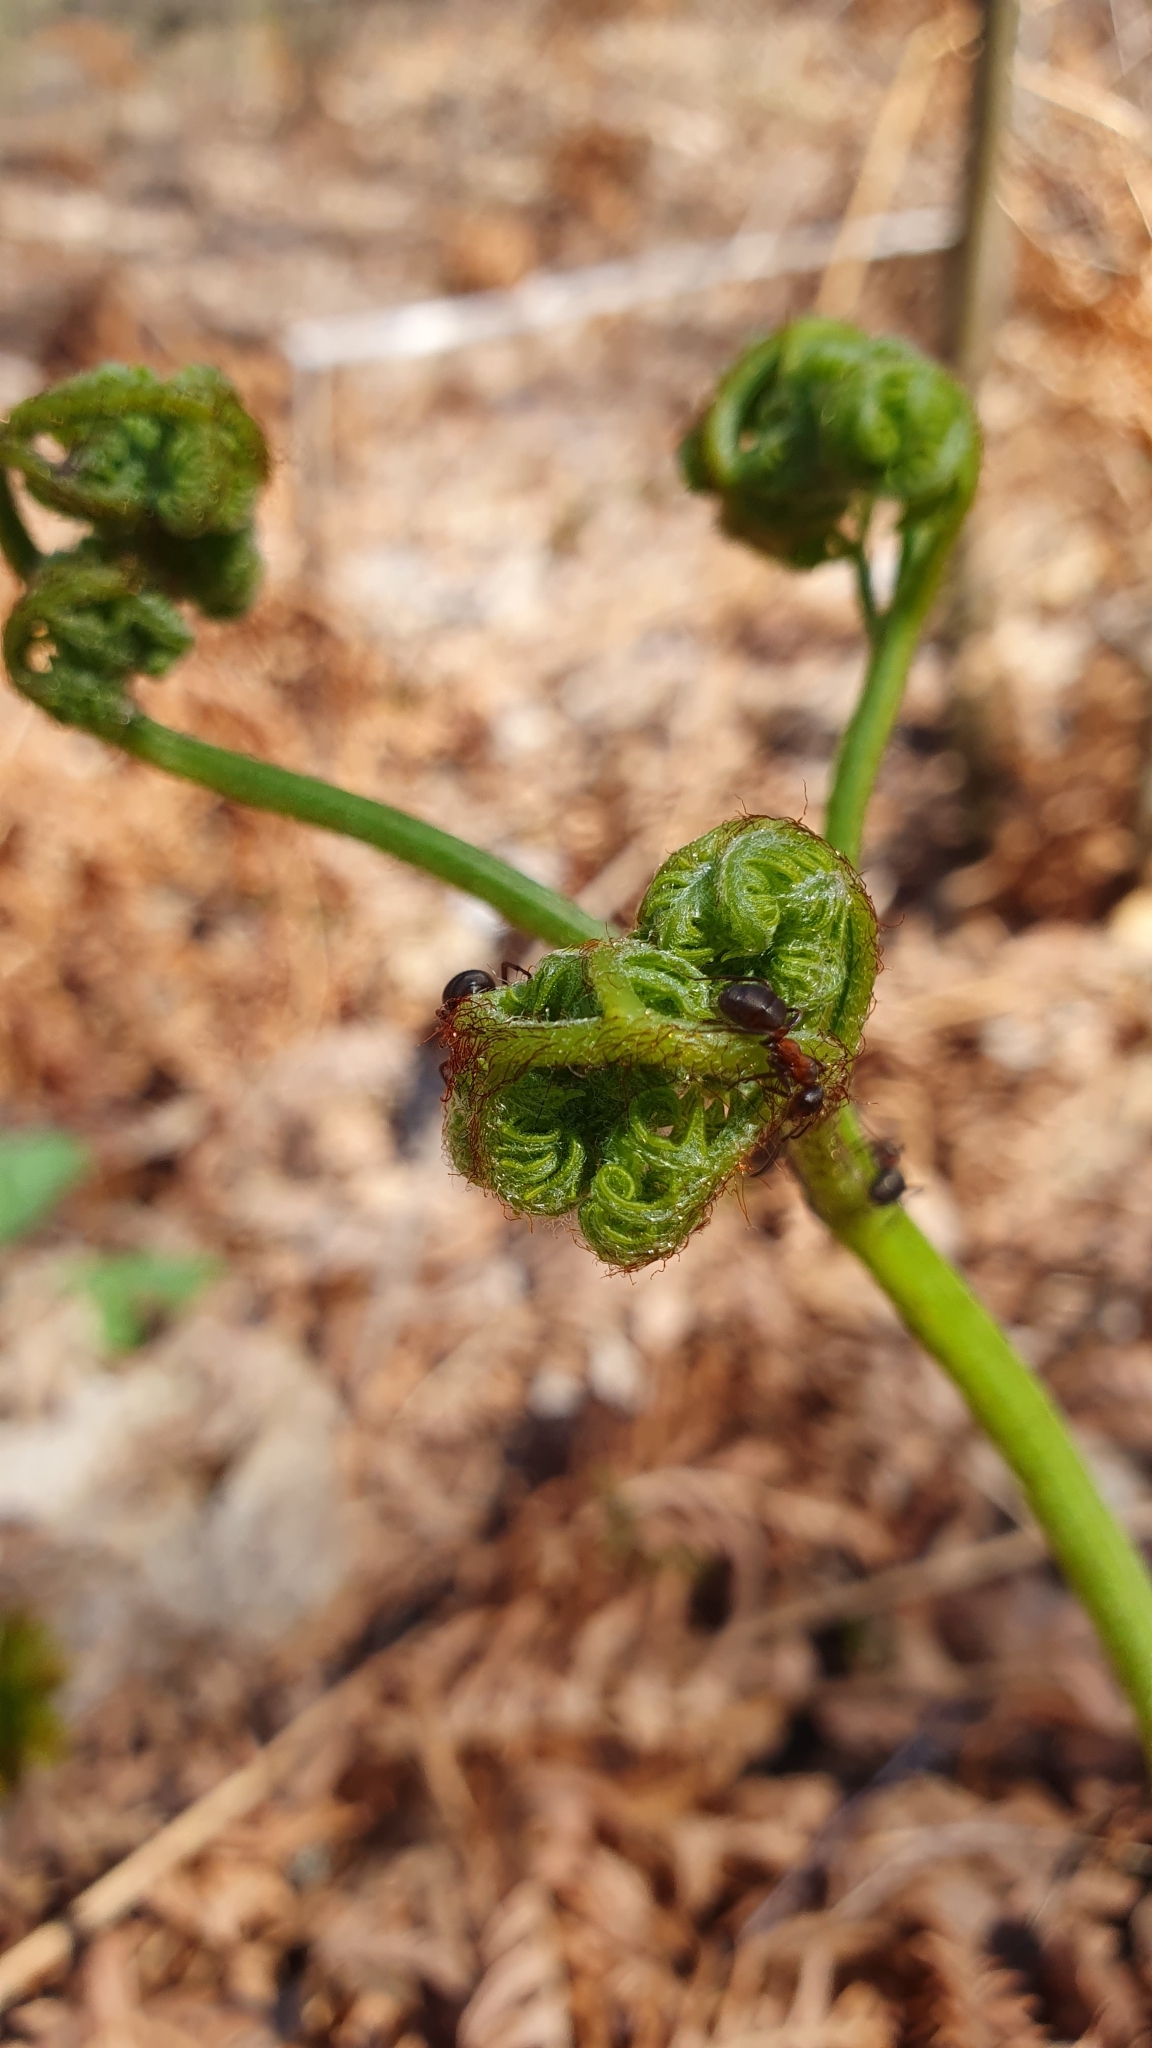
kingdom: Plantae
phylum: Tracheophyta
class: Polypodiopsida
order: Polypodiales
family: Dennstaedtiaceae
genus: Pteridium
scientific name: Pteridium aquilinum
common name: Bracken
